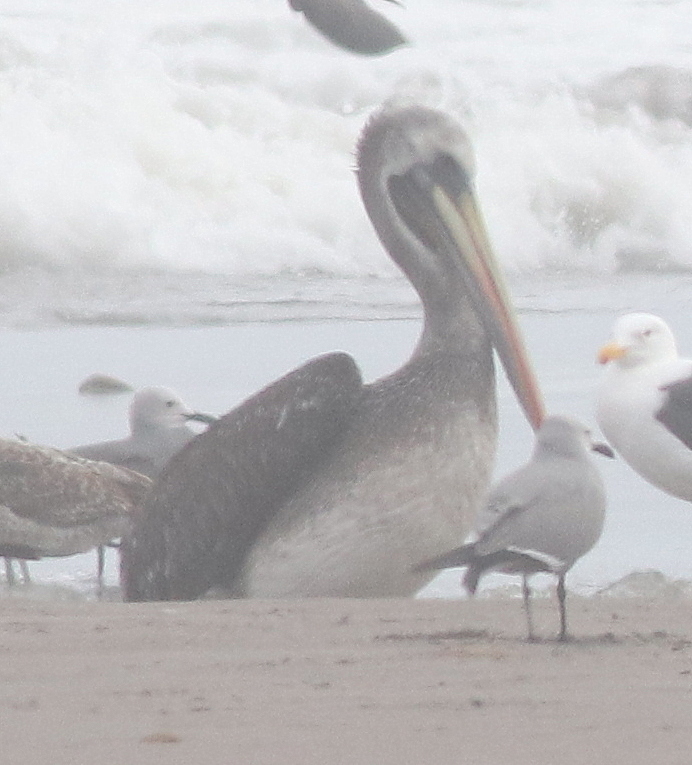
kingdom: Animalia
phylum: Chordata
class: Aves
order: Pelecaniformes
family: Pelecanidae
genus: Pelecanus
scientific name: Pelecanus thagus
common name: Peruvian pelican
